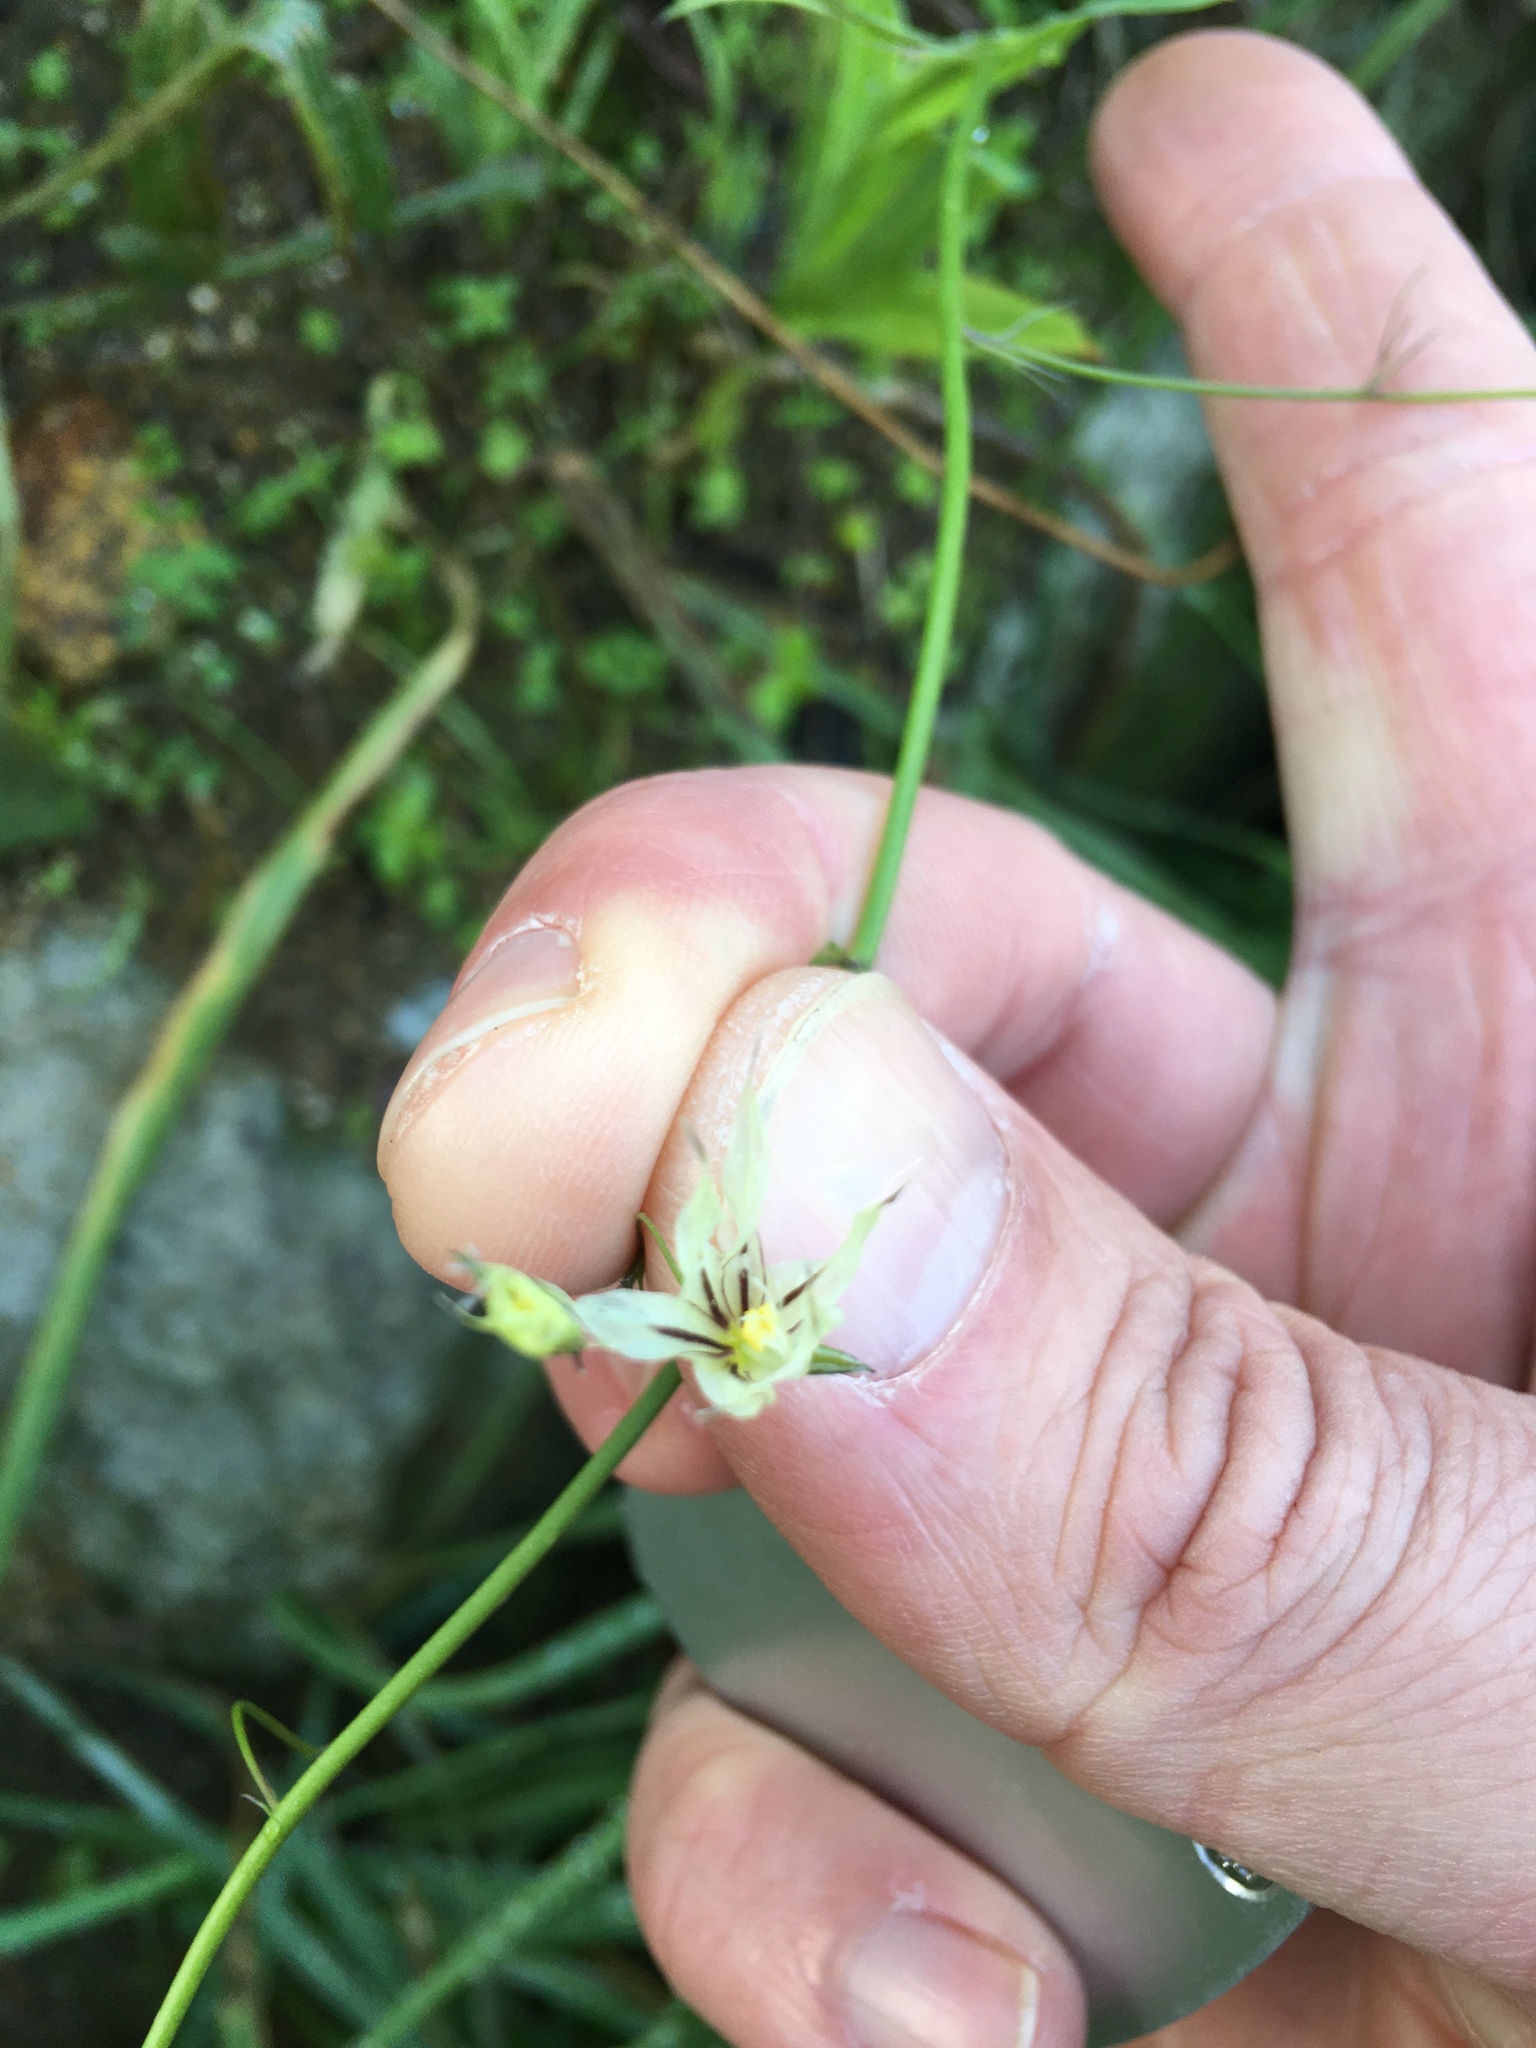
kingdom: Plantae
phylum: Tracheophyta
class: Liliopsida
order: Asparagales
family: Iridaceae
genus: Melasphaerula
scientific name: Melasphaerula graminea
